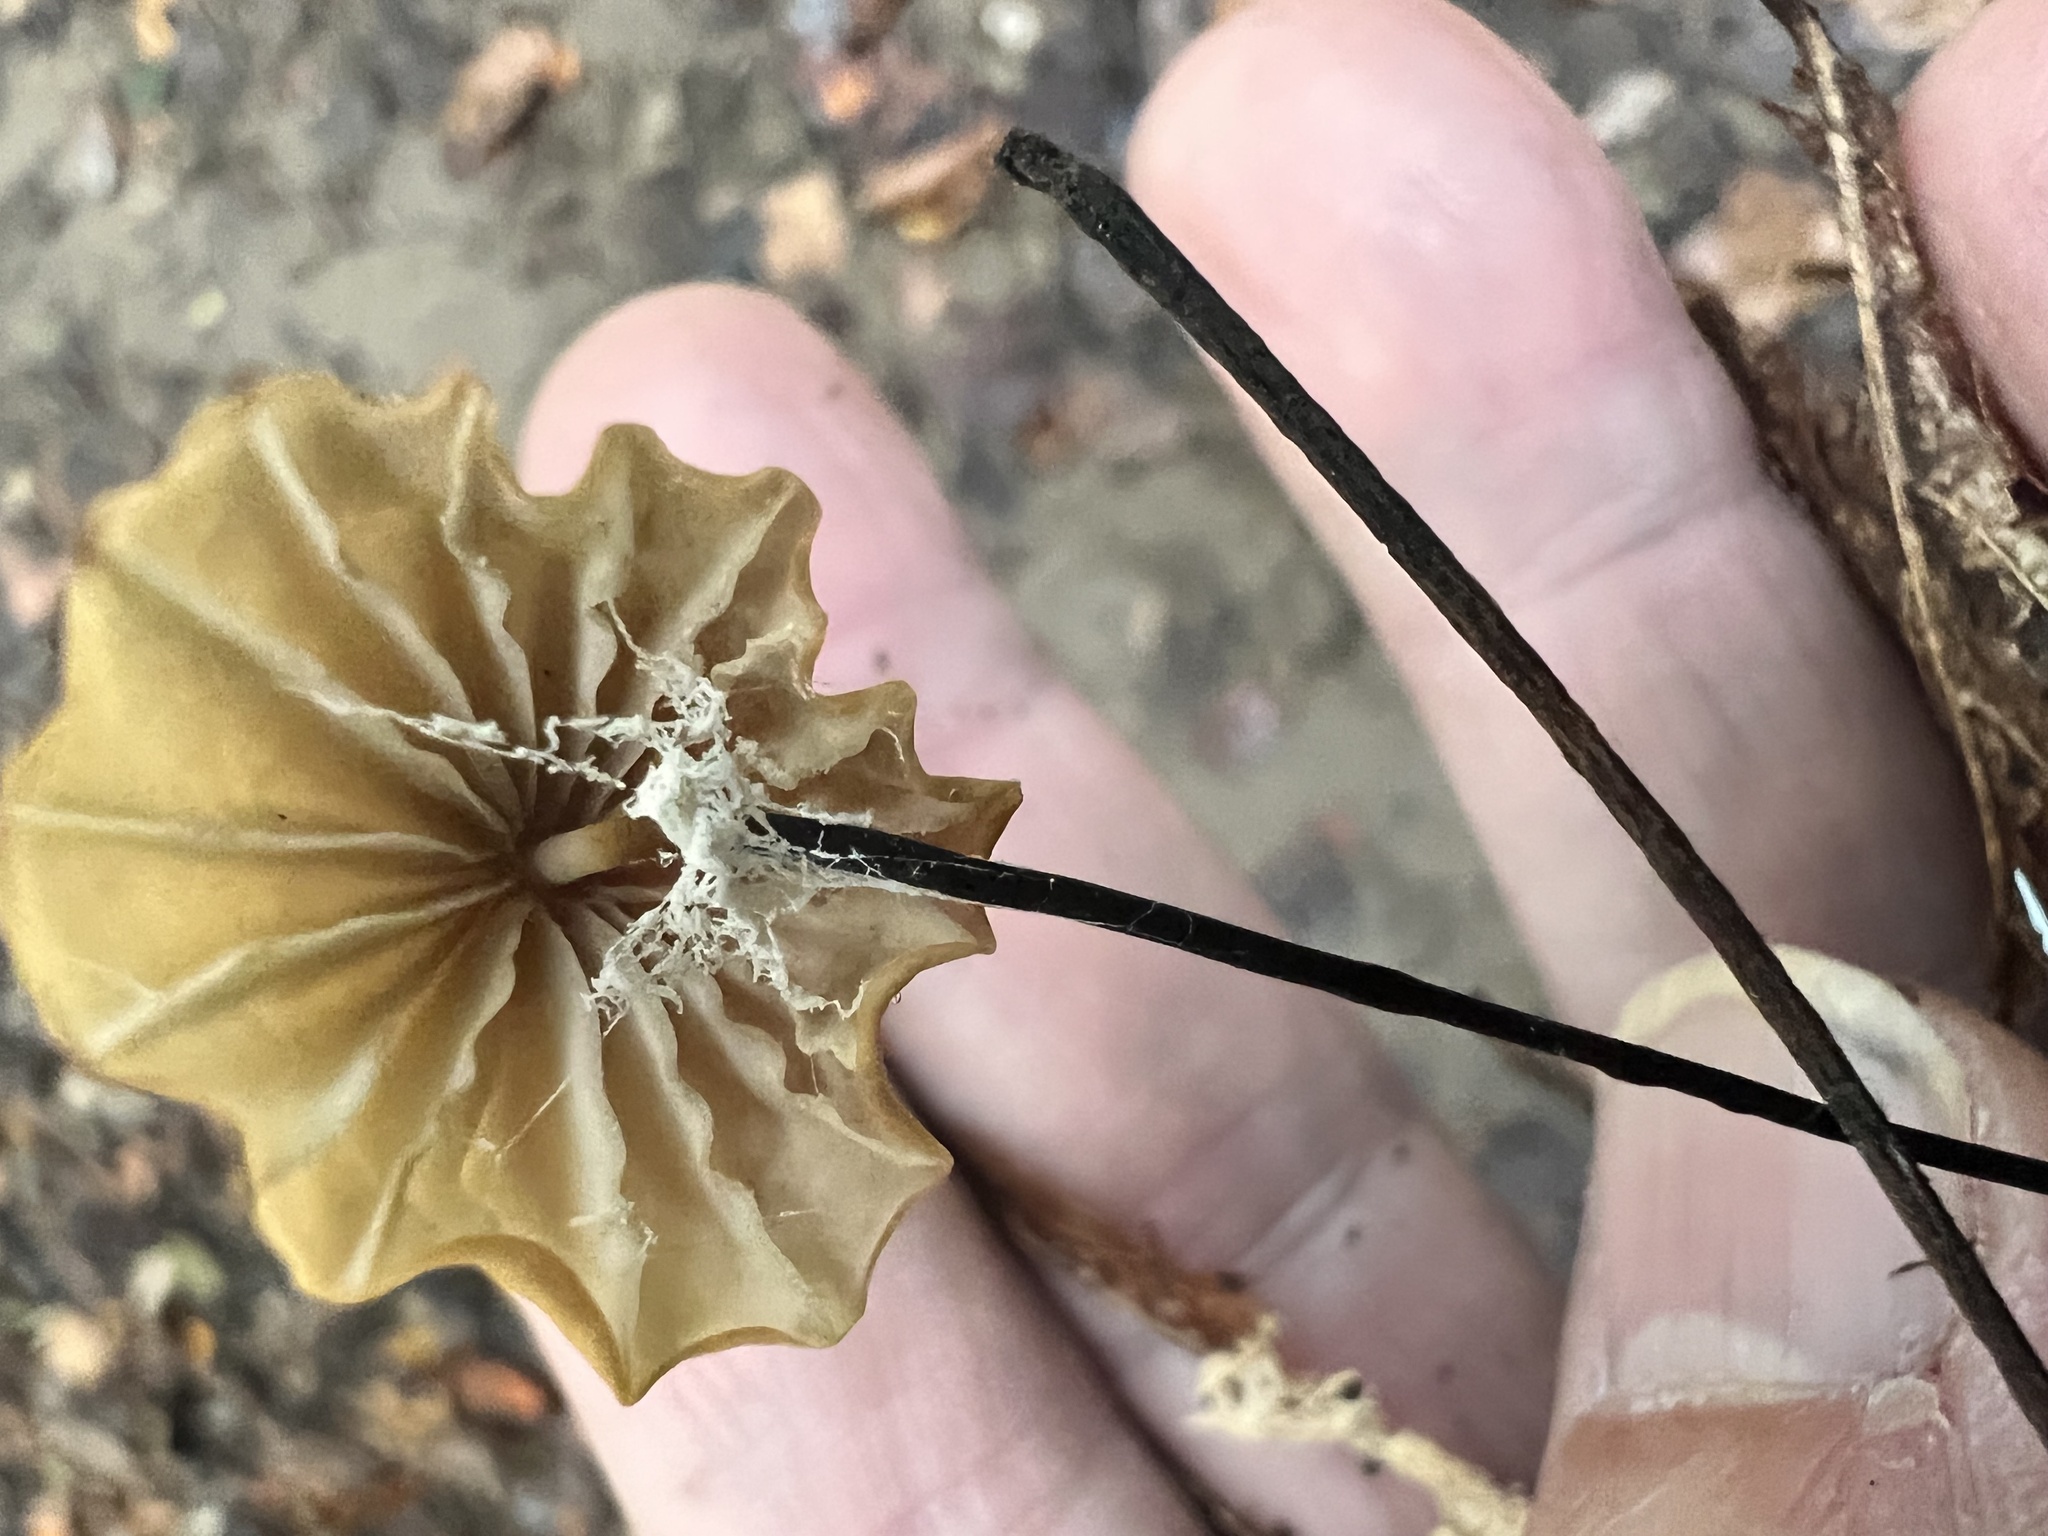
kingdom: Fungi
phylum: Basidiomycota
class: Agaricomycetes
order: Agaricales
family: Marasmiaceae
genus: Marasmius
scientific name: Marasmius siccus
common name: Orange pinwheel
